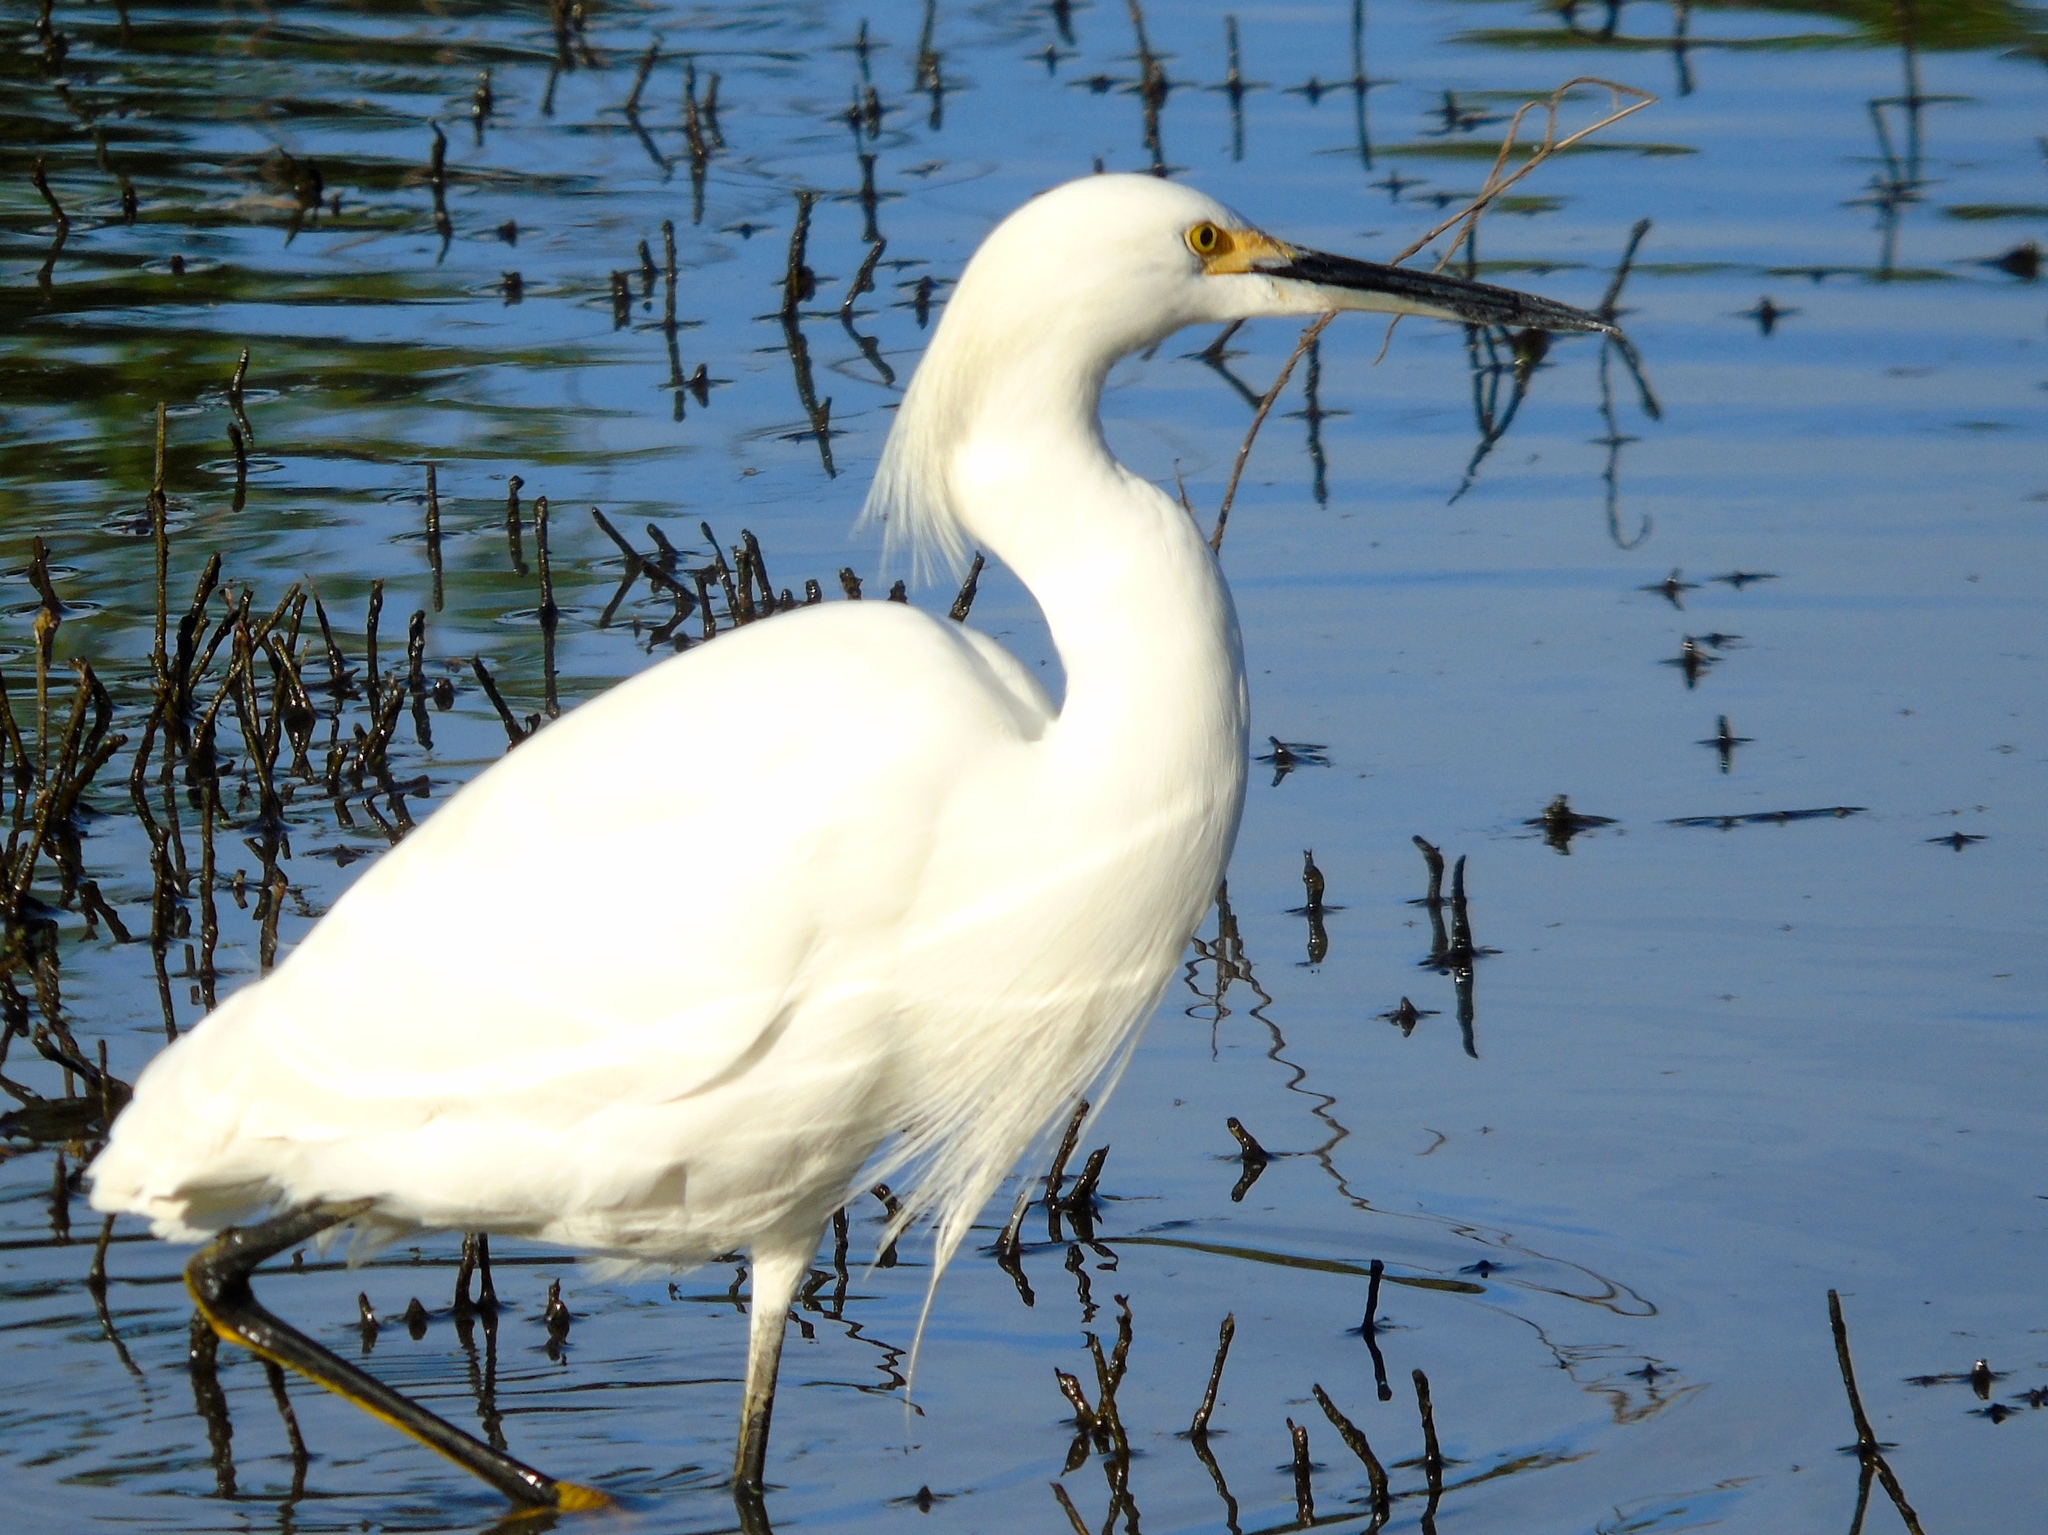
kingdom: Animalia
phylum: Chordata
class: Aves
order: Pelecaniformes
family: Ardeidae
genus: Egretta
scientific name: Egretta thula
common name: Snowy egret
